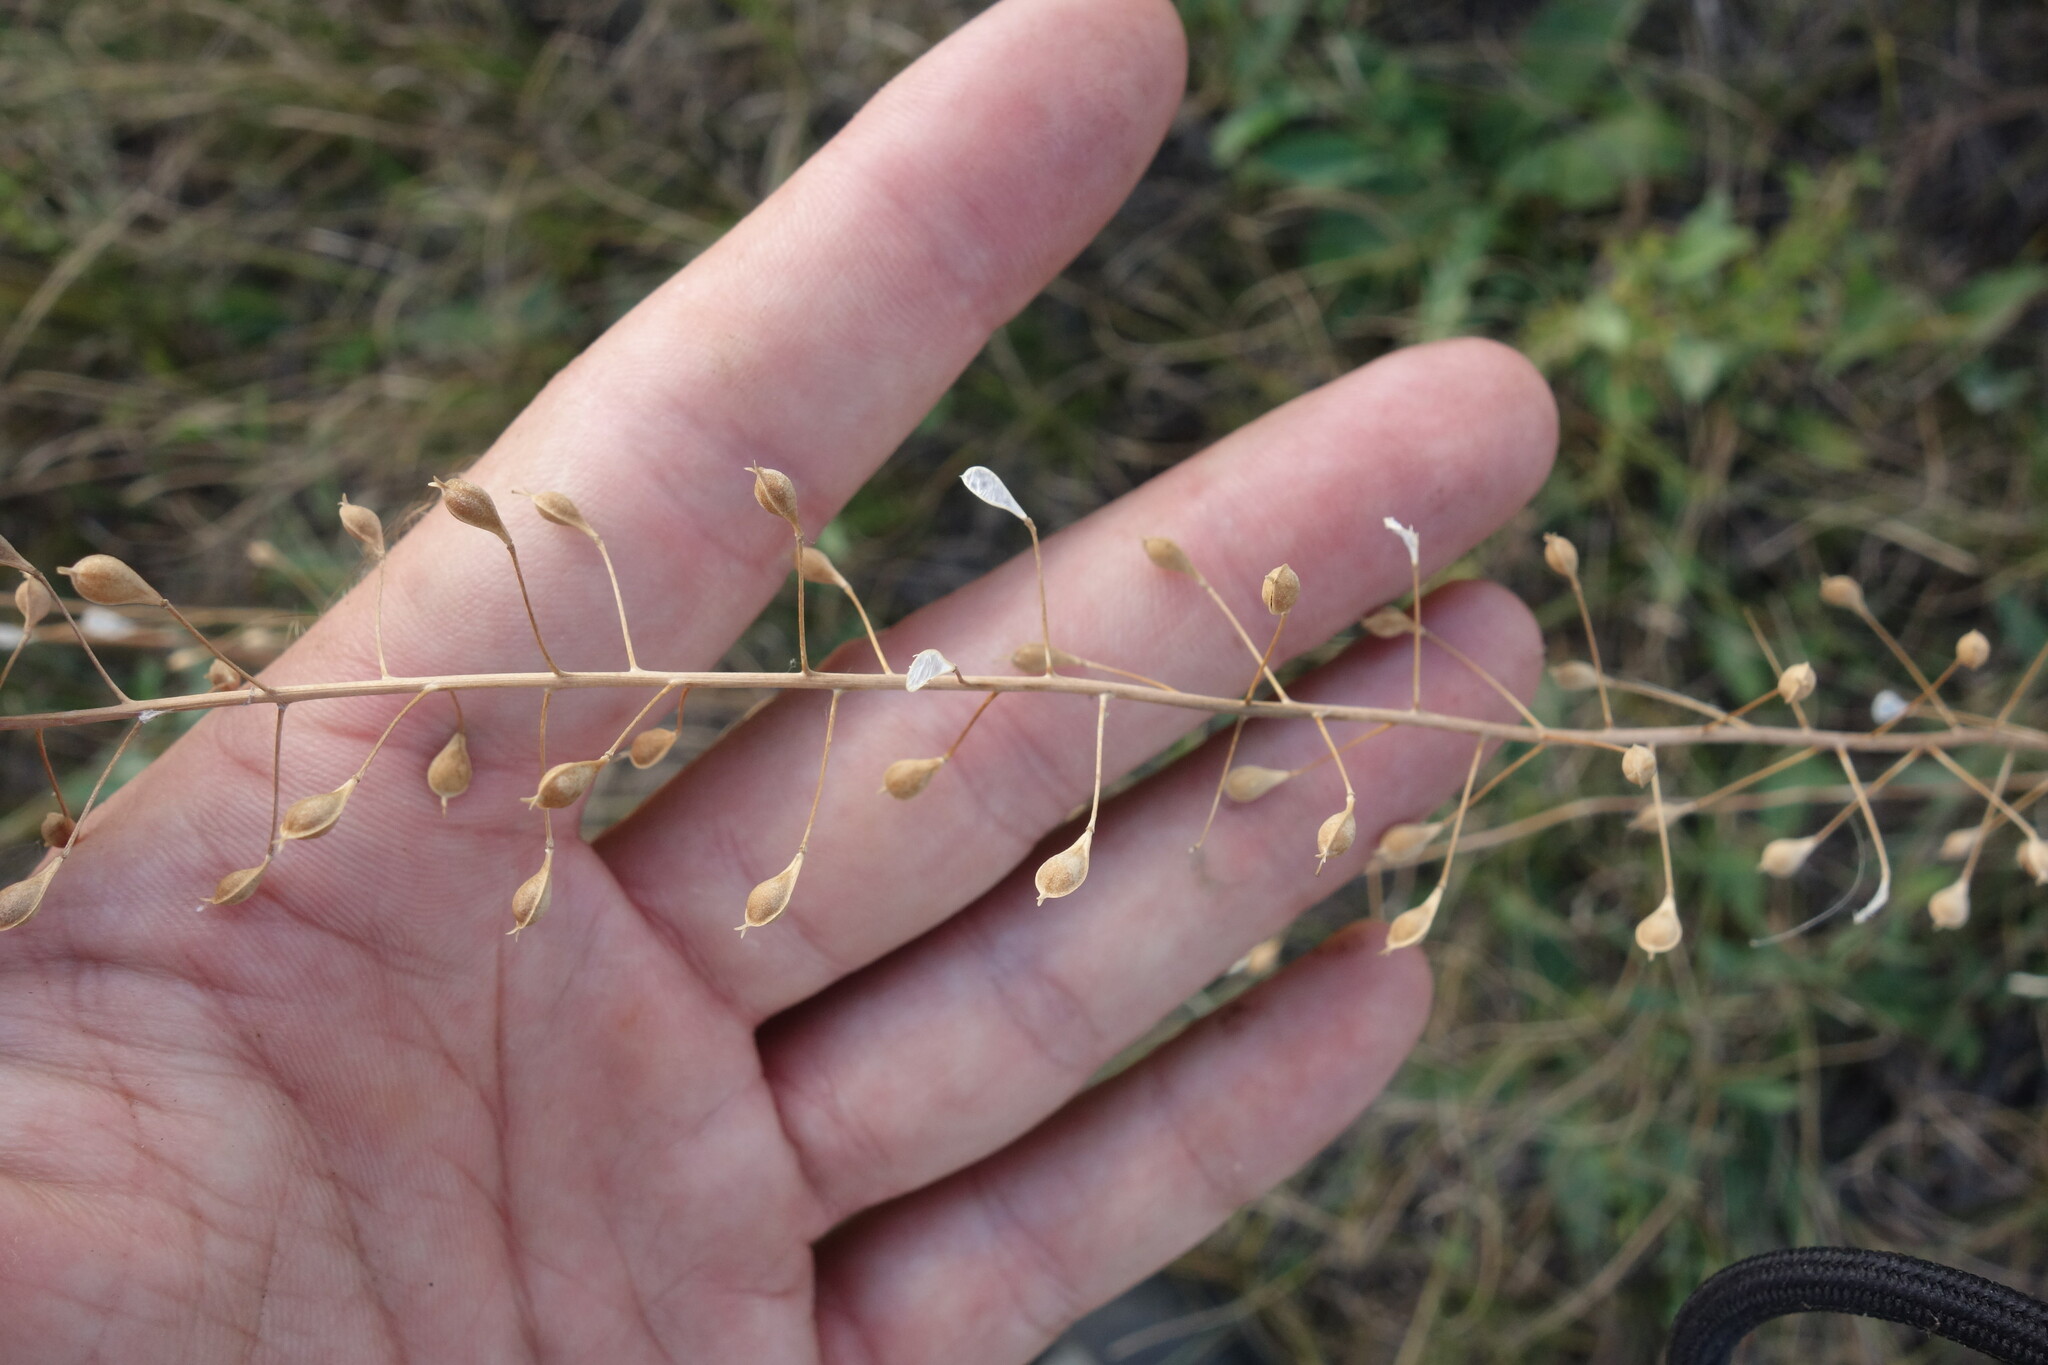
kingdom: Plantae
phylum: Tracheophyta
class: Magnoliopsida
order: Brassicales
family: Brassicaceae
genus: Camelina
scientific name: Camelina microcarpa
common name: Lesser gold-of-pleasure
